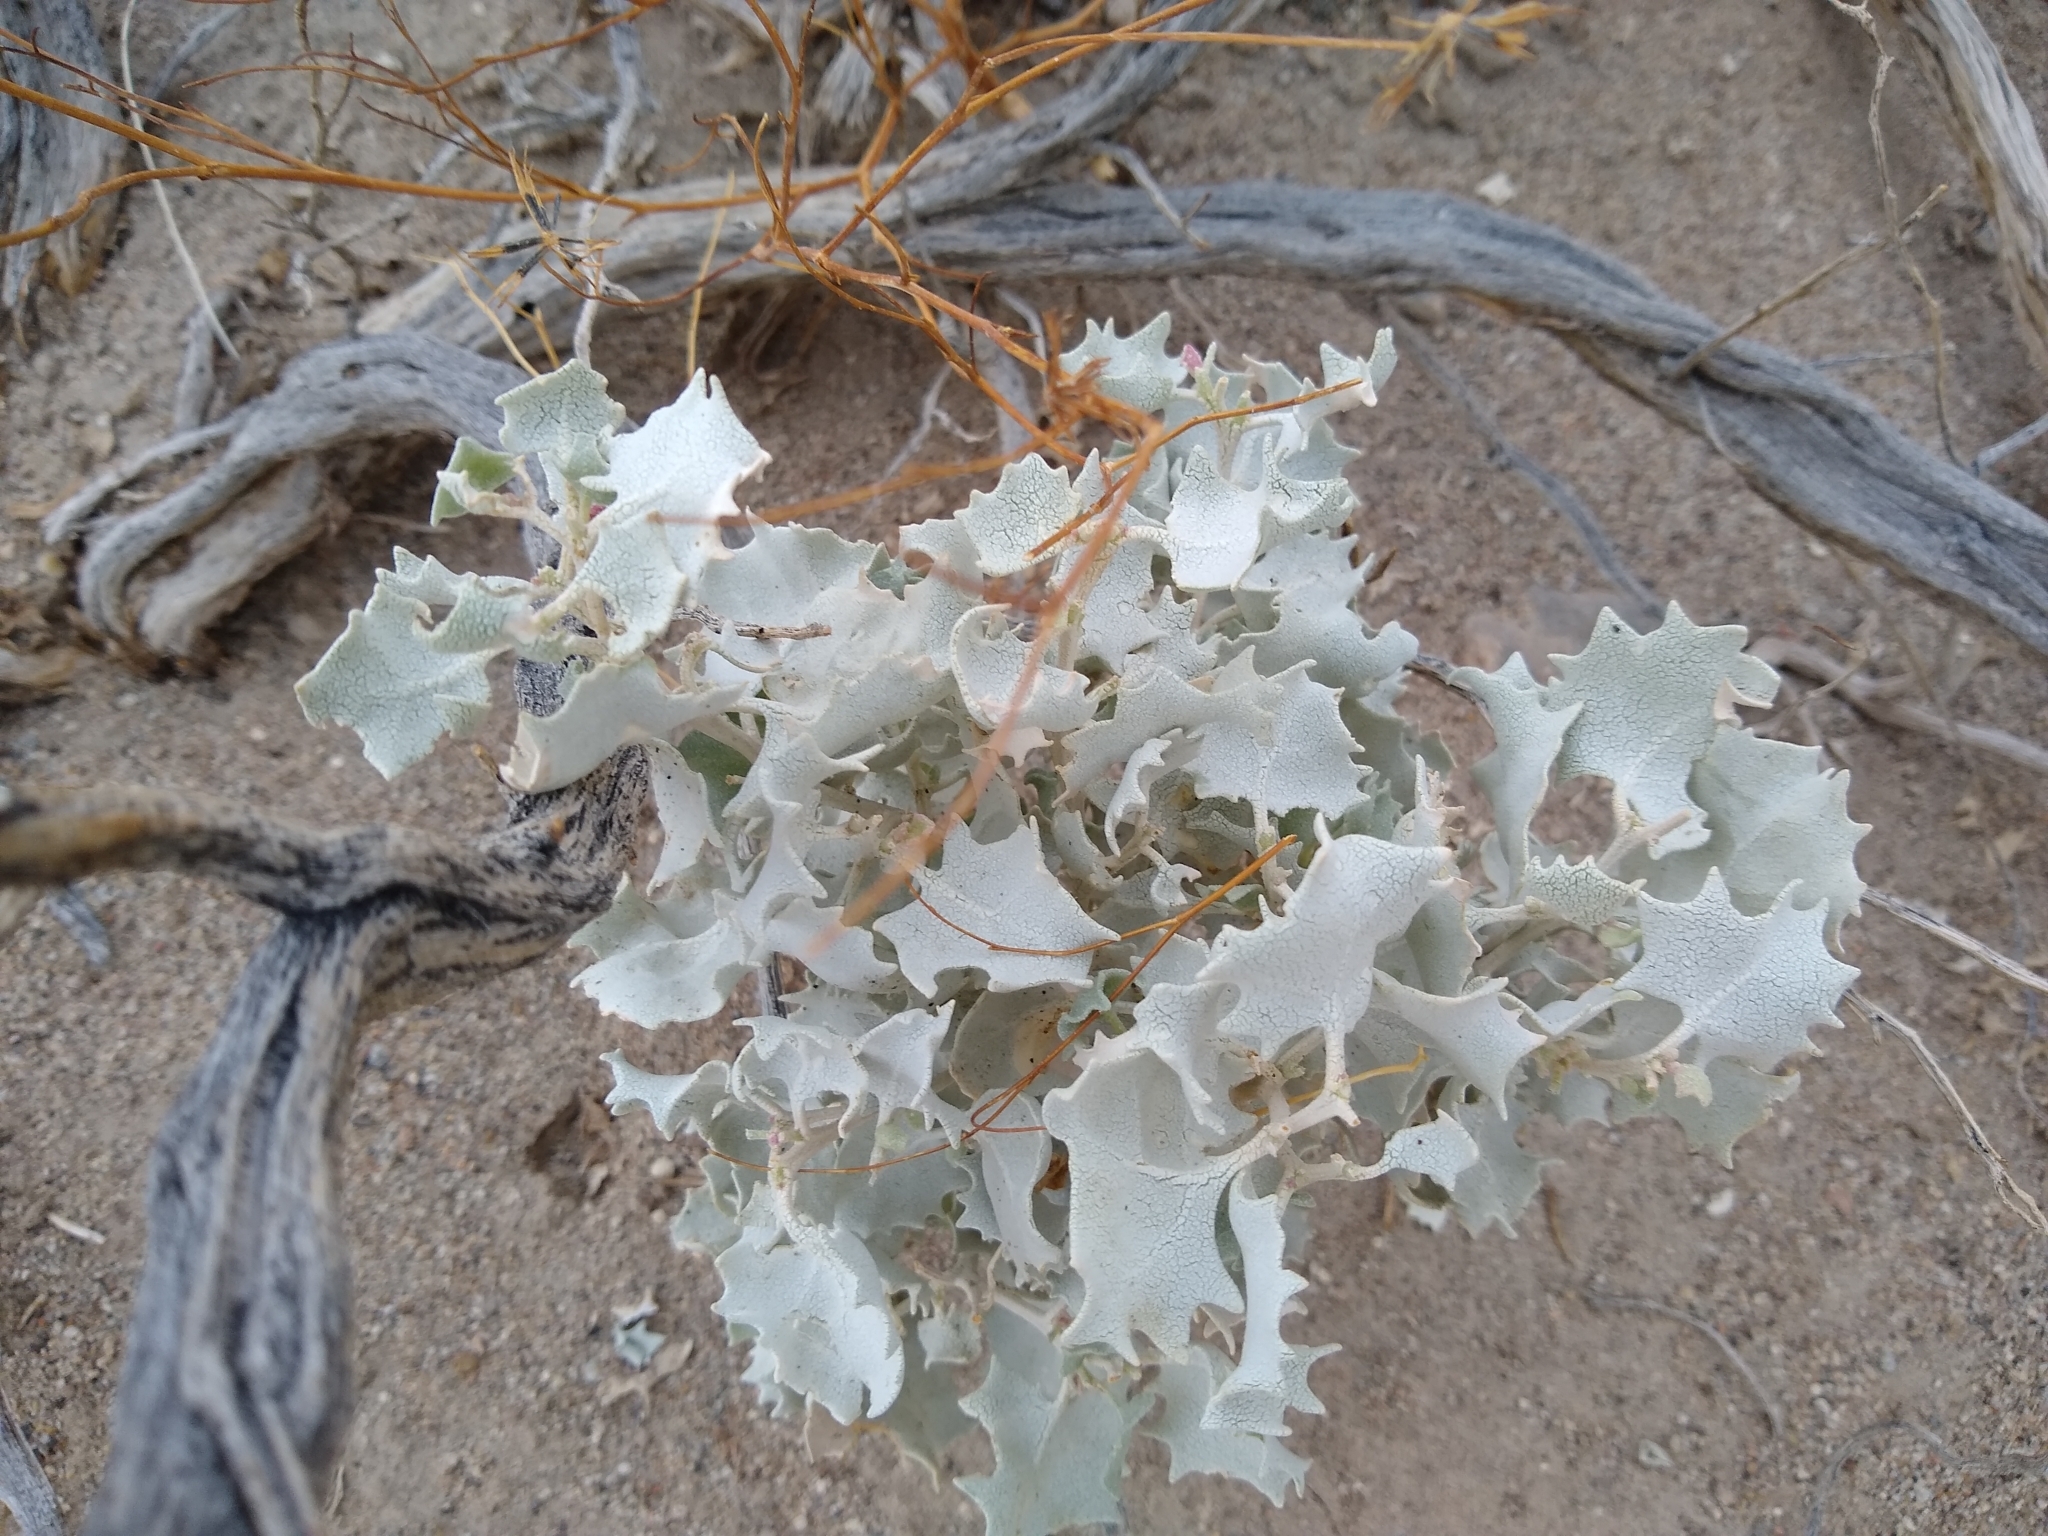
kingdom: Plantae
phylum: Tracheophyta
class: Magnoliopsida
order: Caryophyllales
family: Amaranthaceae
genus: Atriplex
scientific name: Atriplex hymenelytra
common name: Desert-holly
